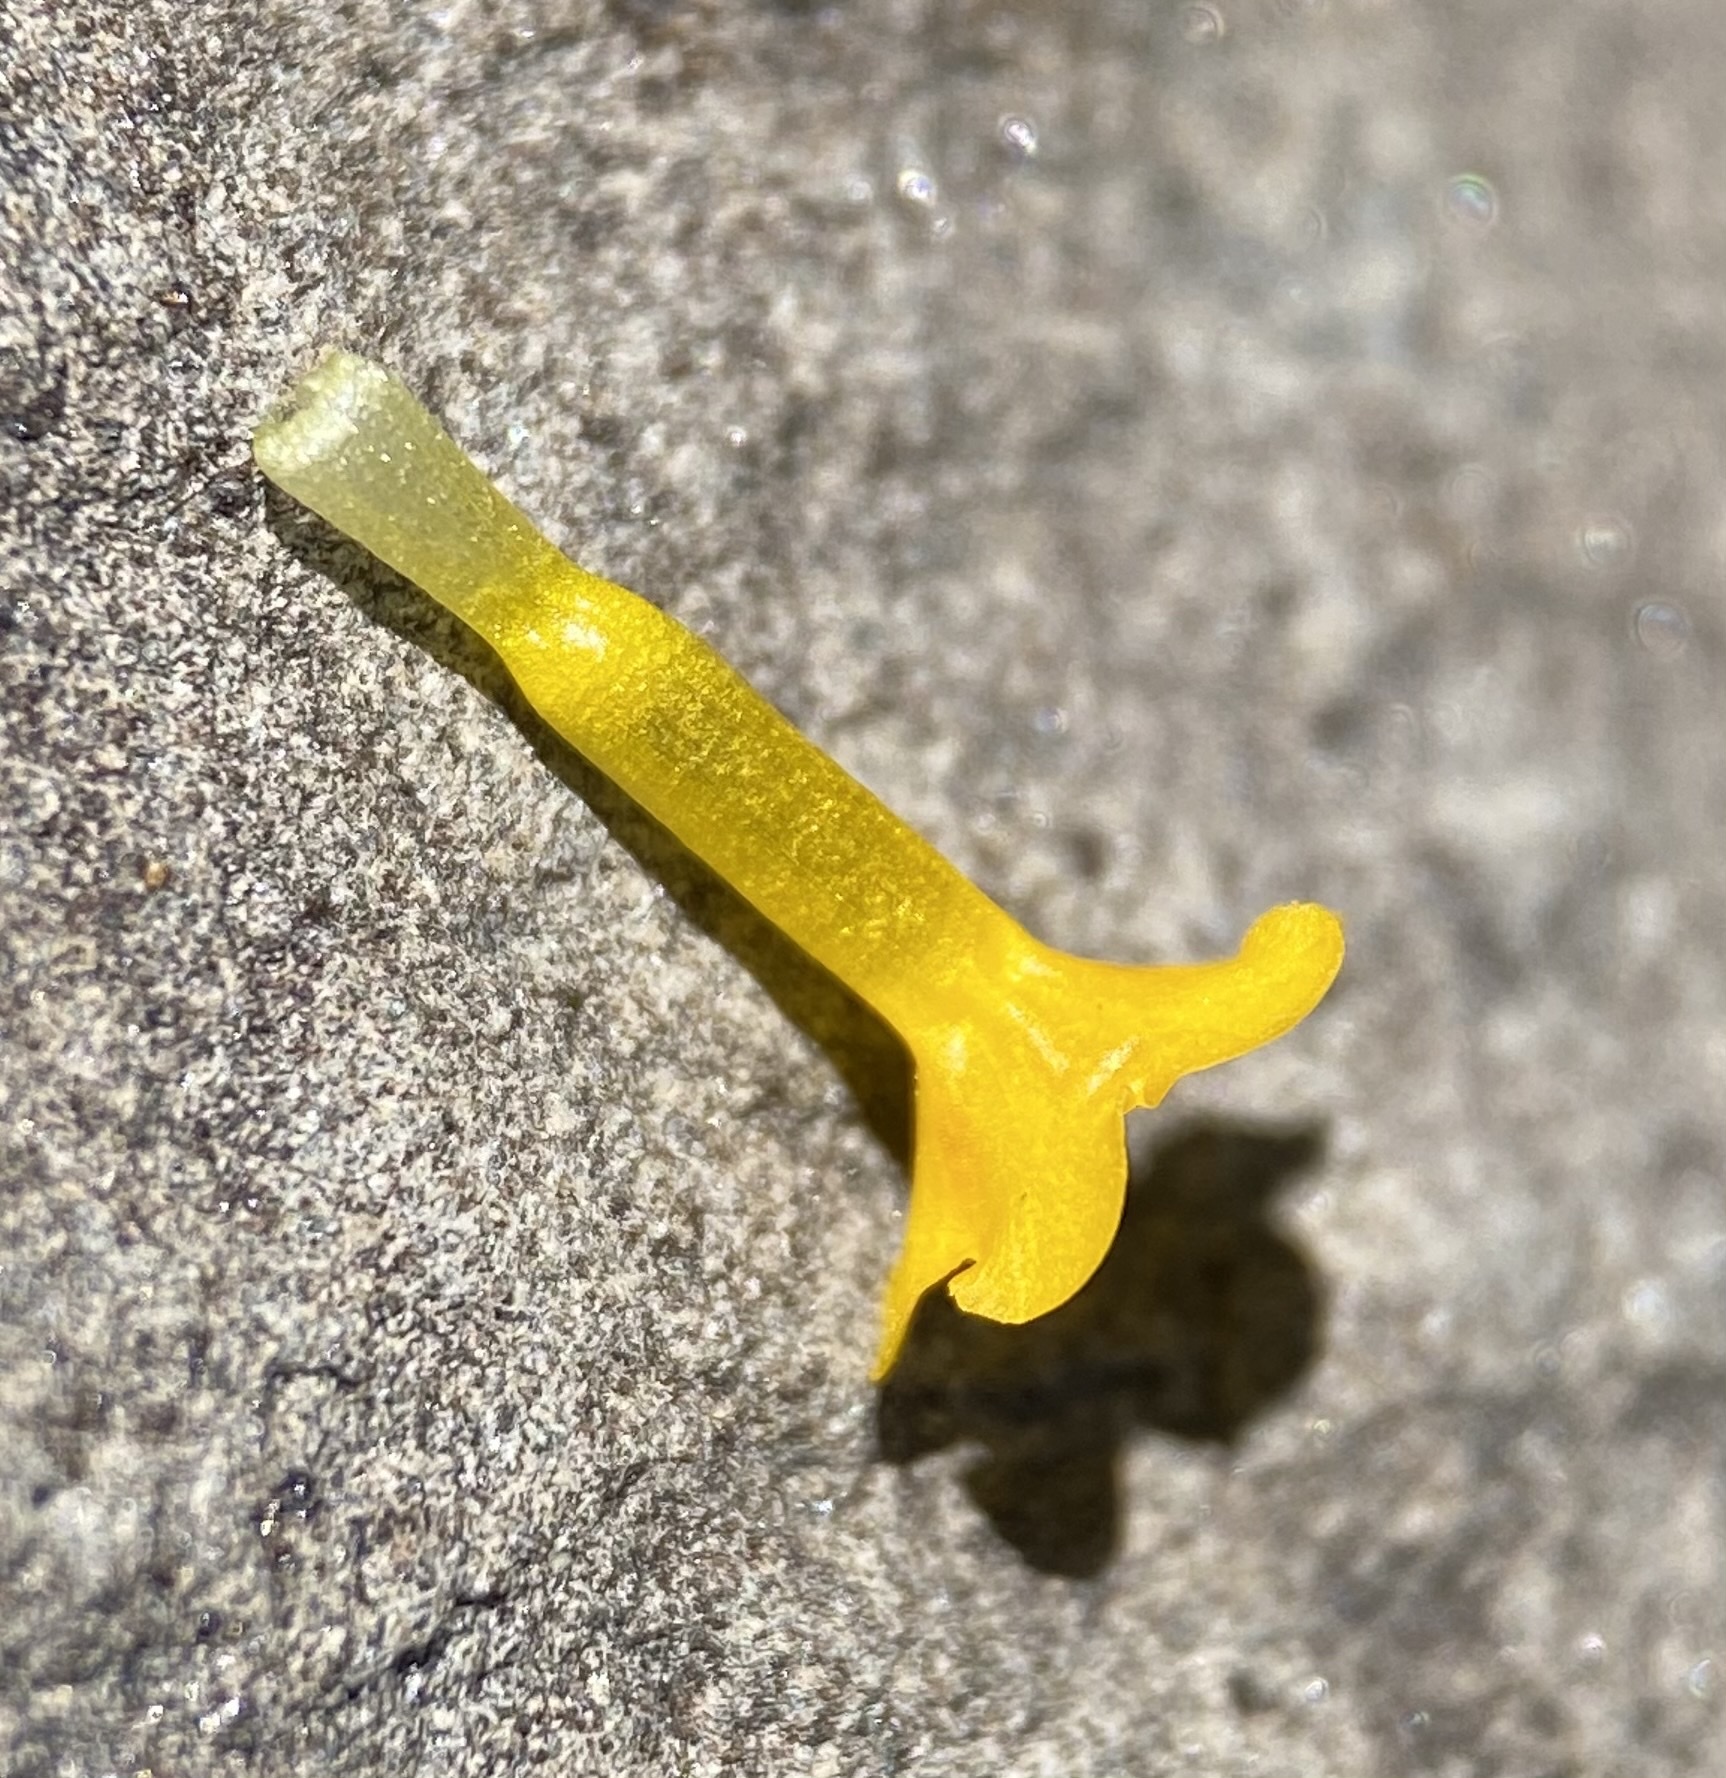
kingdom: Plantae
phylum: Tracheophyta
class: Magnoliopsida
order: Boraginales
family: Boraginaceae
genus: Amsinckia
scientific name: Amsinckia lycopsoides
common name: Tarweed fiddleneck
